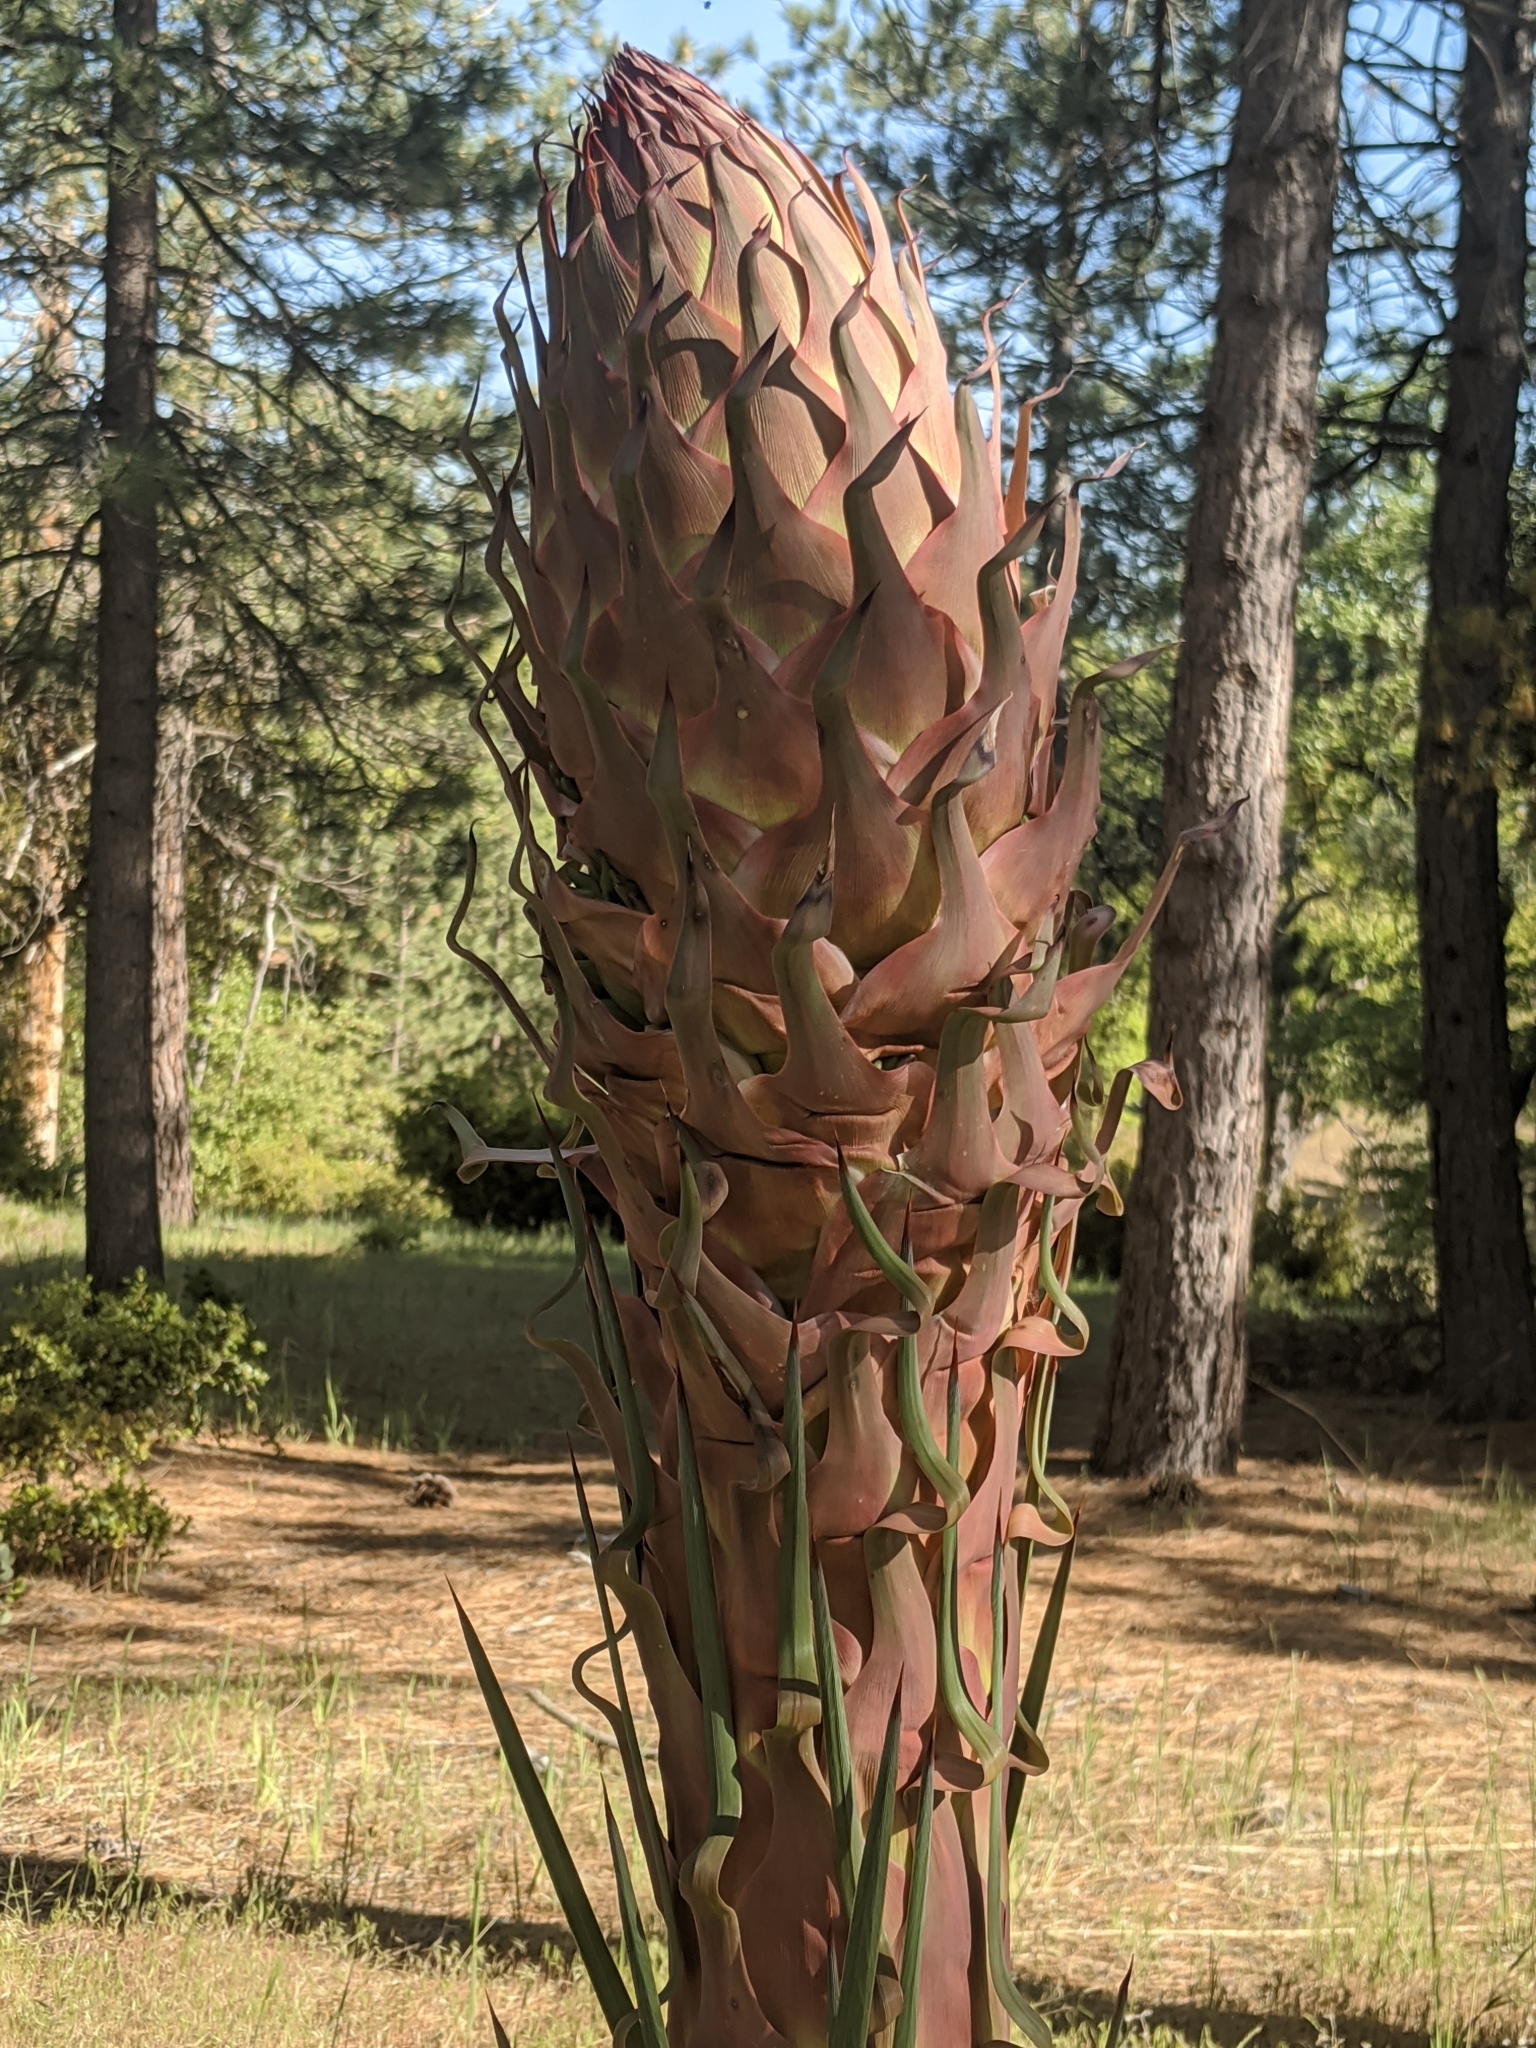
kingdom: Plantae
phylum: Tracheophyta
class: Liliopsida
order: Asparagales
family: Asparagaceae
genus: Hesperoyucca
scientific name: Hesperoyucca whipplei
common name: Our lord's-candle
